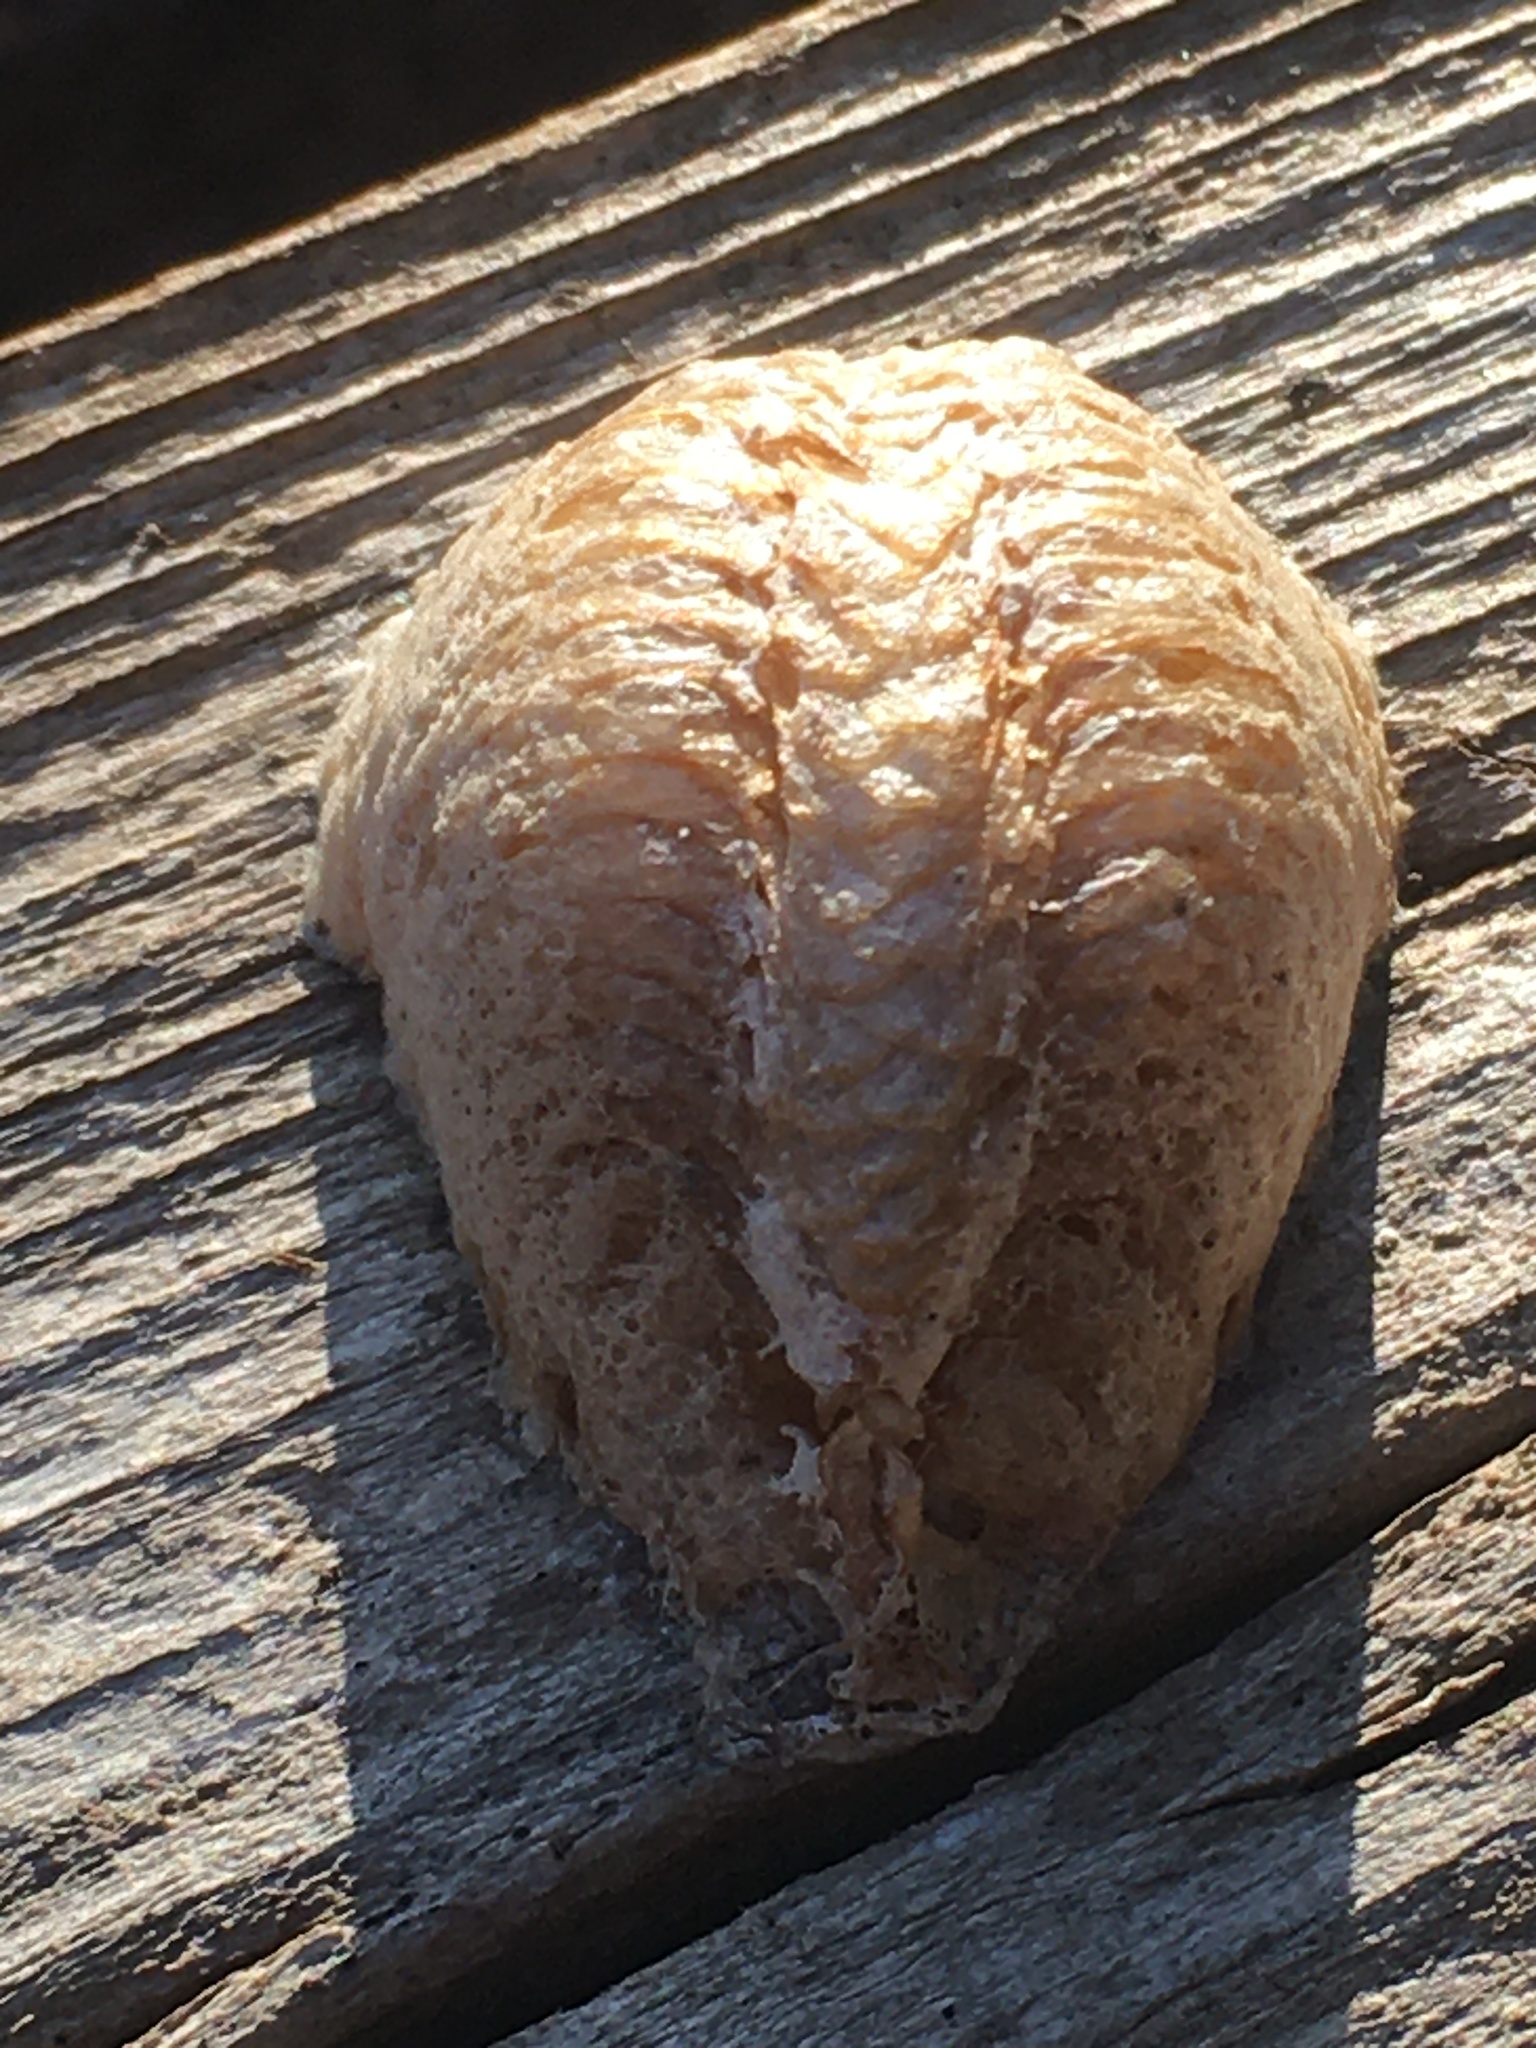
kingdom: Animalia
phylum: Arthropoda
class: Insecta
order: Mantodea
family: Mantidae
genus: Mantis
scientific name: Mantis religiosa
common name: Praying mantis
